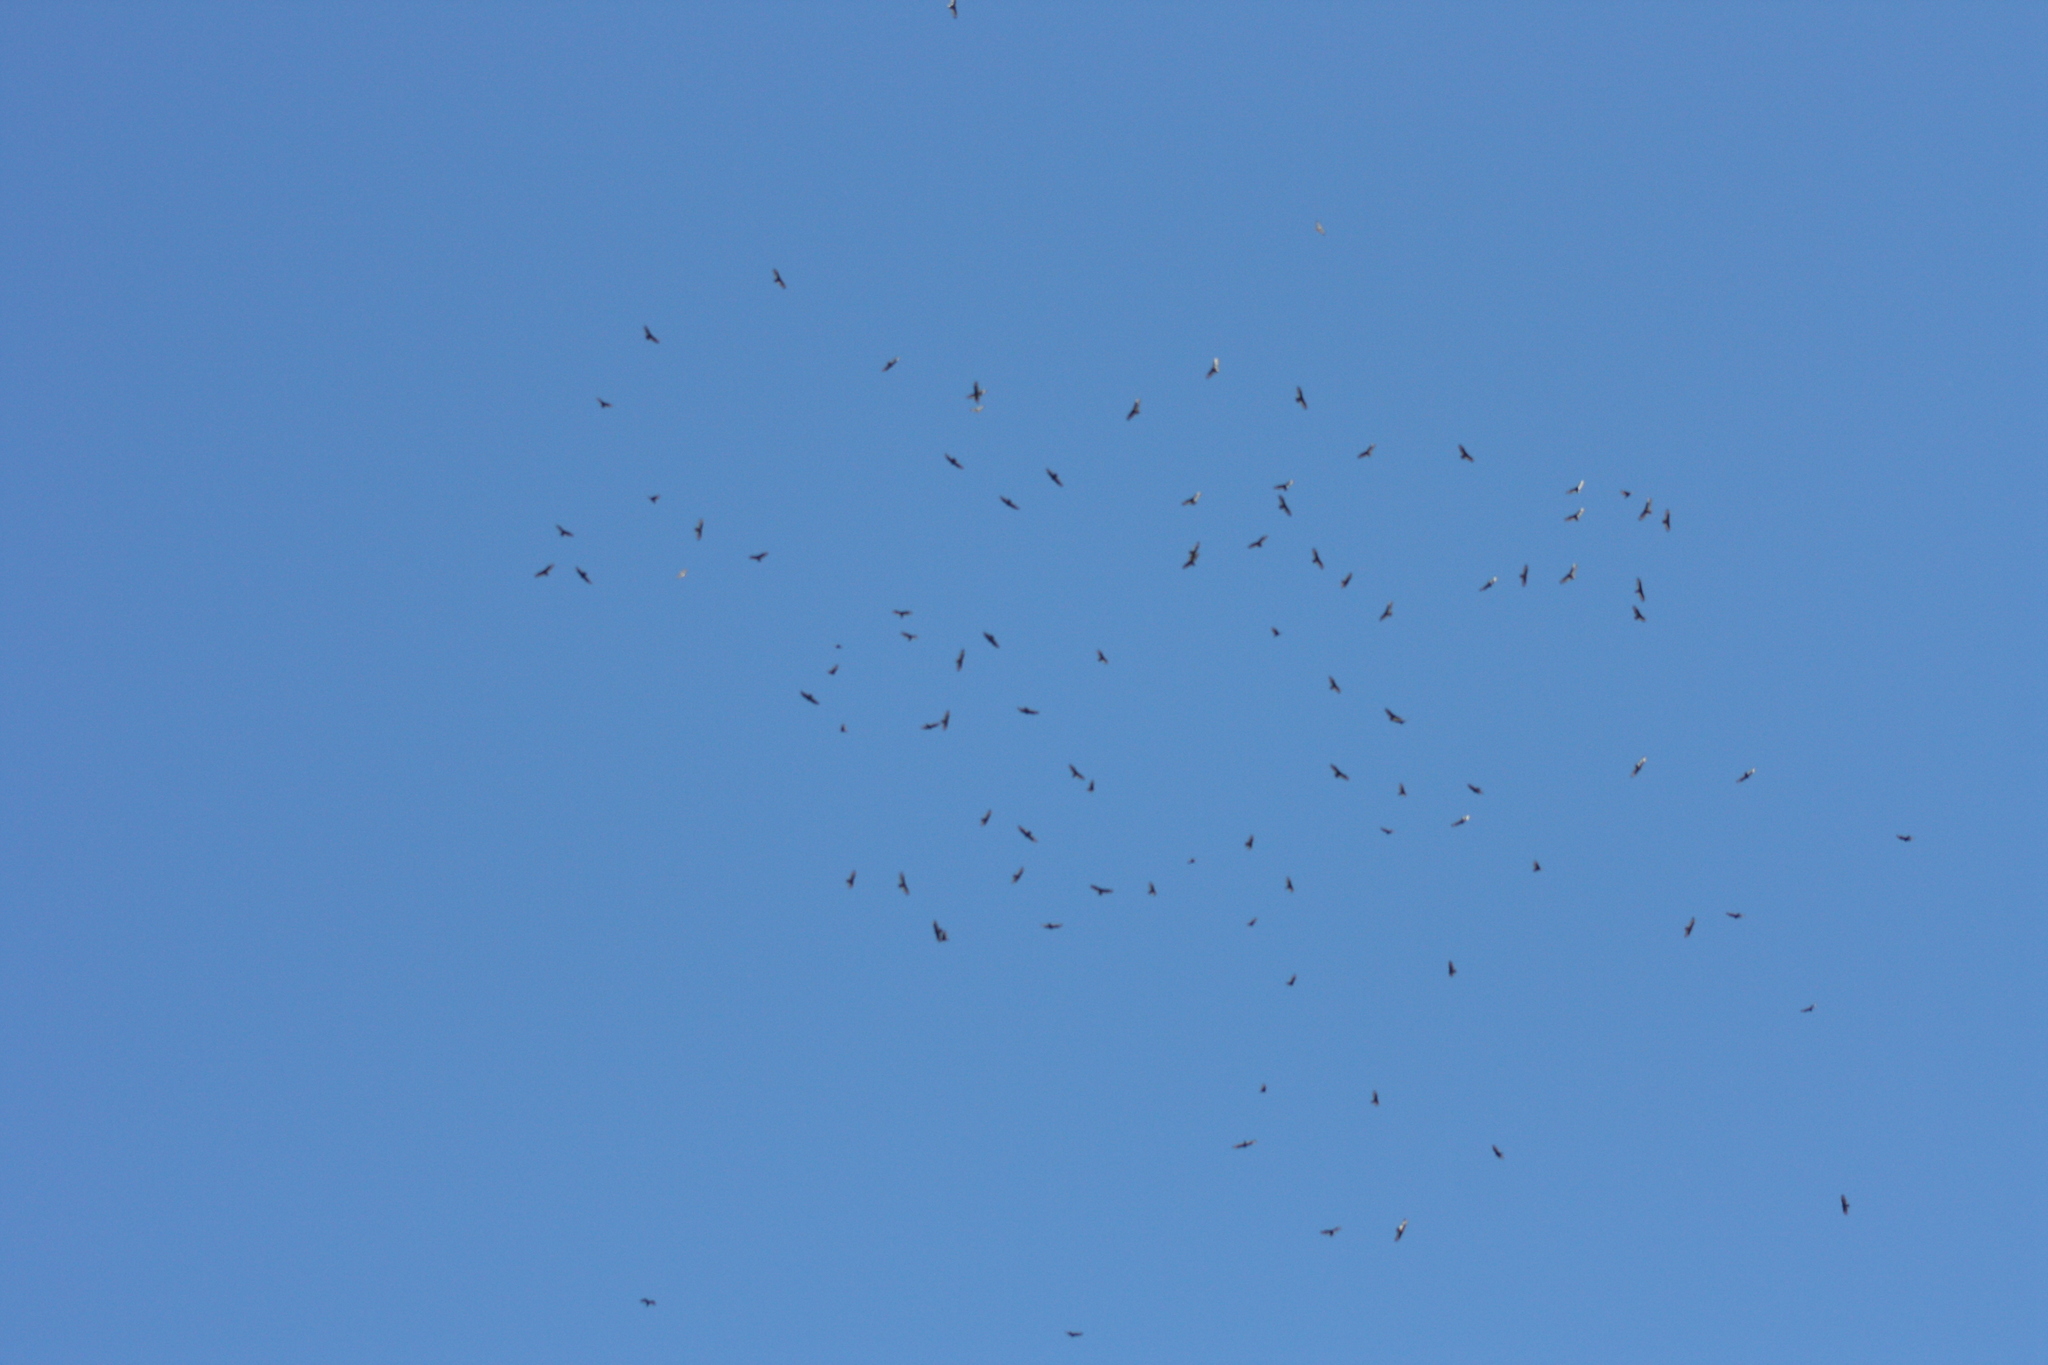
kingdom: Animalia
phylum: Chordata
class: Aves
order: Accipitriformes
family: Cathartidae
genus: Cathartes
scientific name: Cathartes aura
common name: Turkey vulture
